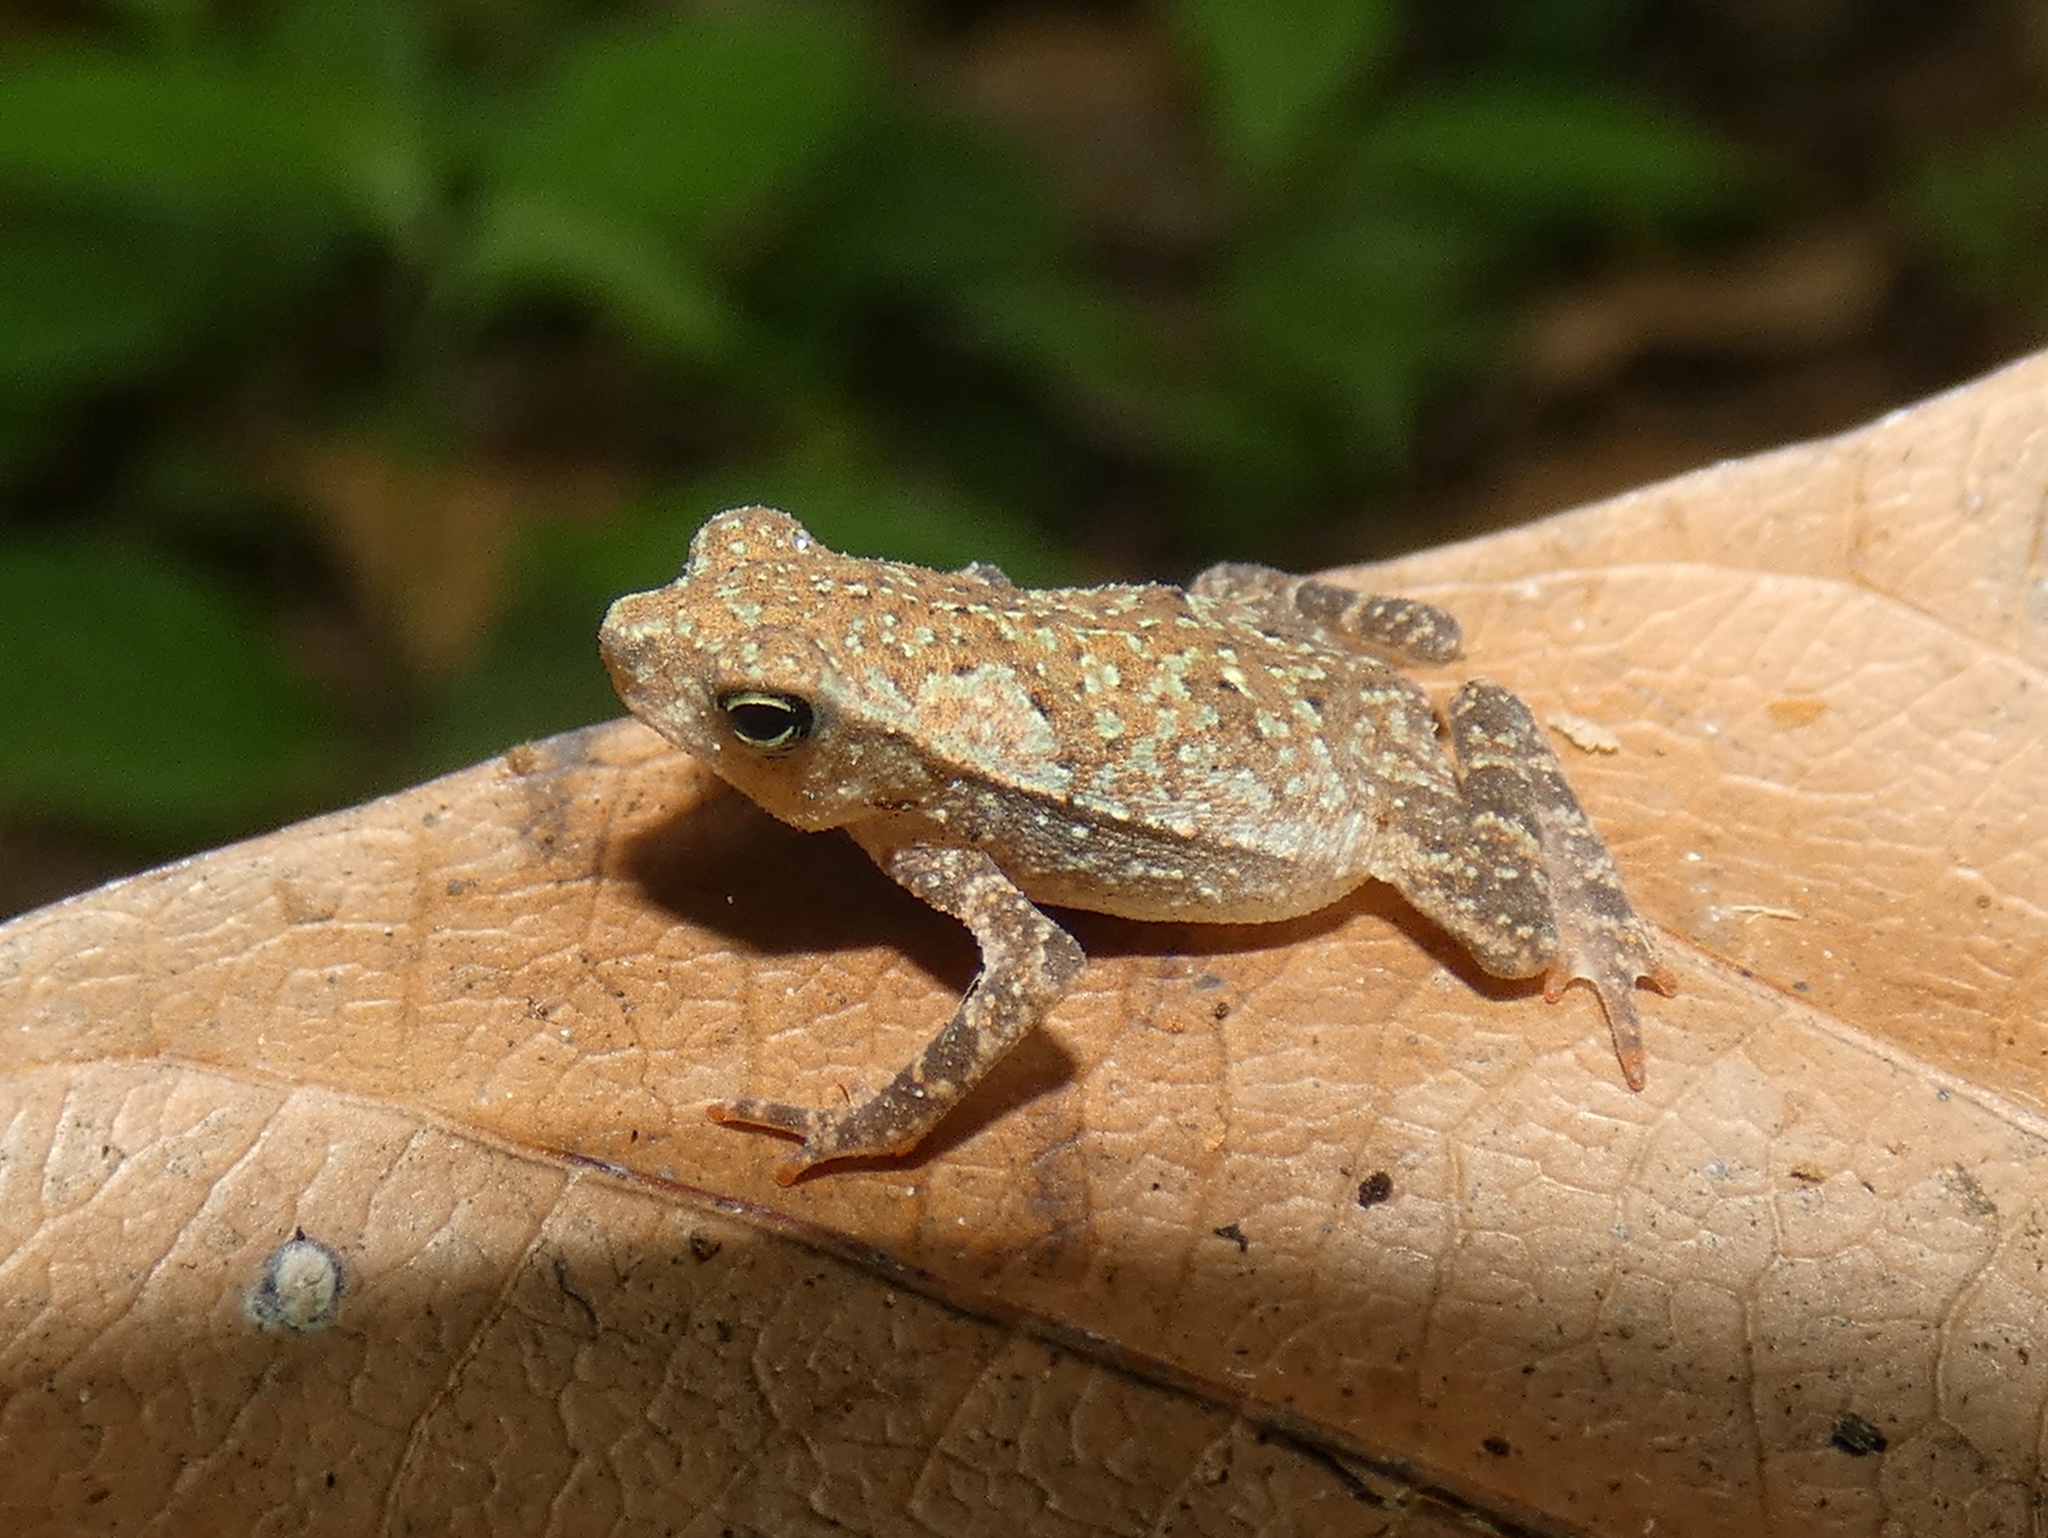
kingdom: Animalia
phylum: Chordata
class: Amphibia
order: Anura
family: Bufonidae
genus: Rhinella
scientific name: Rhinella alata
